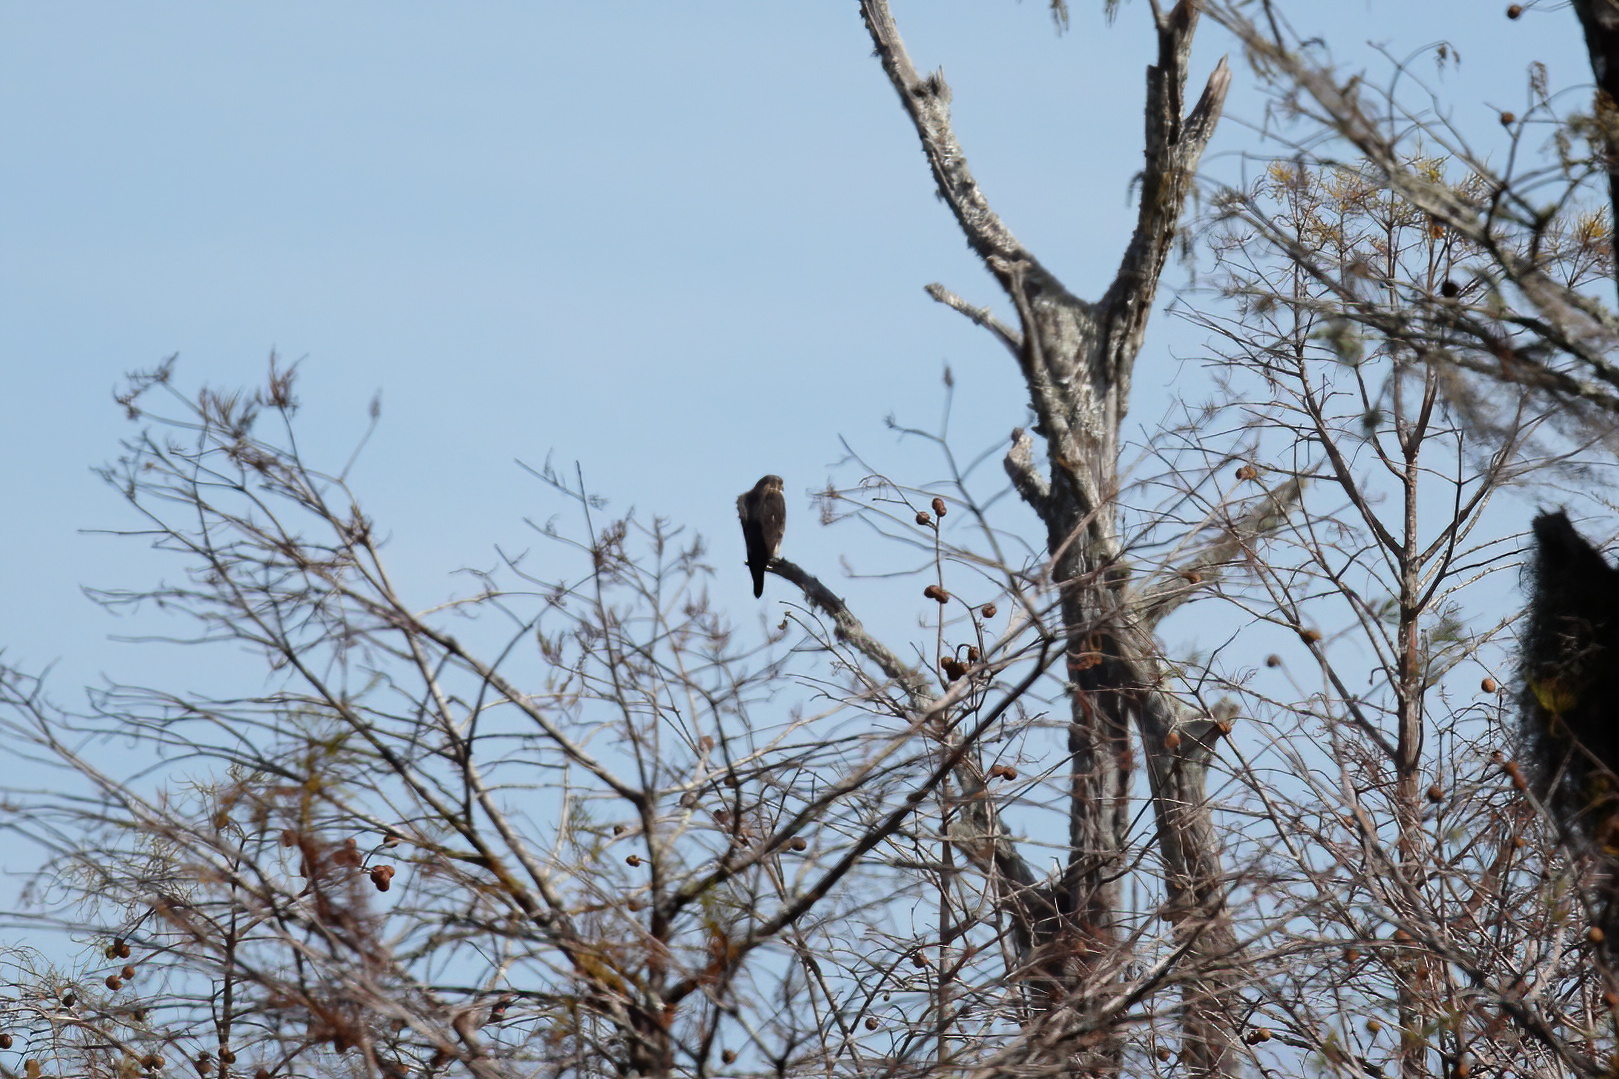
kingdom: Animalia
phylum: Chordata
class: Aves
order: Falconiformes
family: Falconidae
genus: Falco
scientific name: Falco columbarius
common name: Merlin
